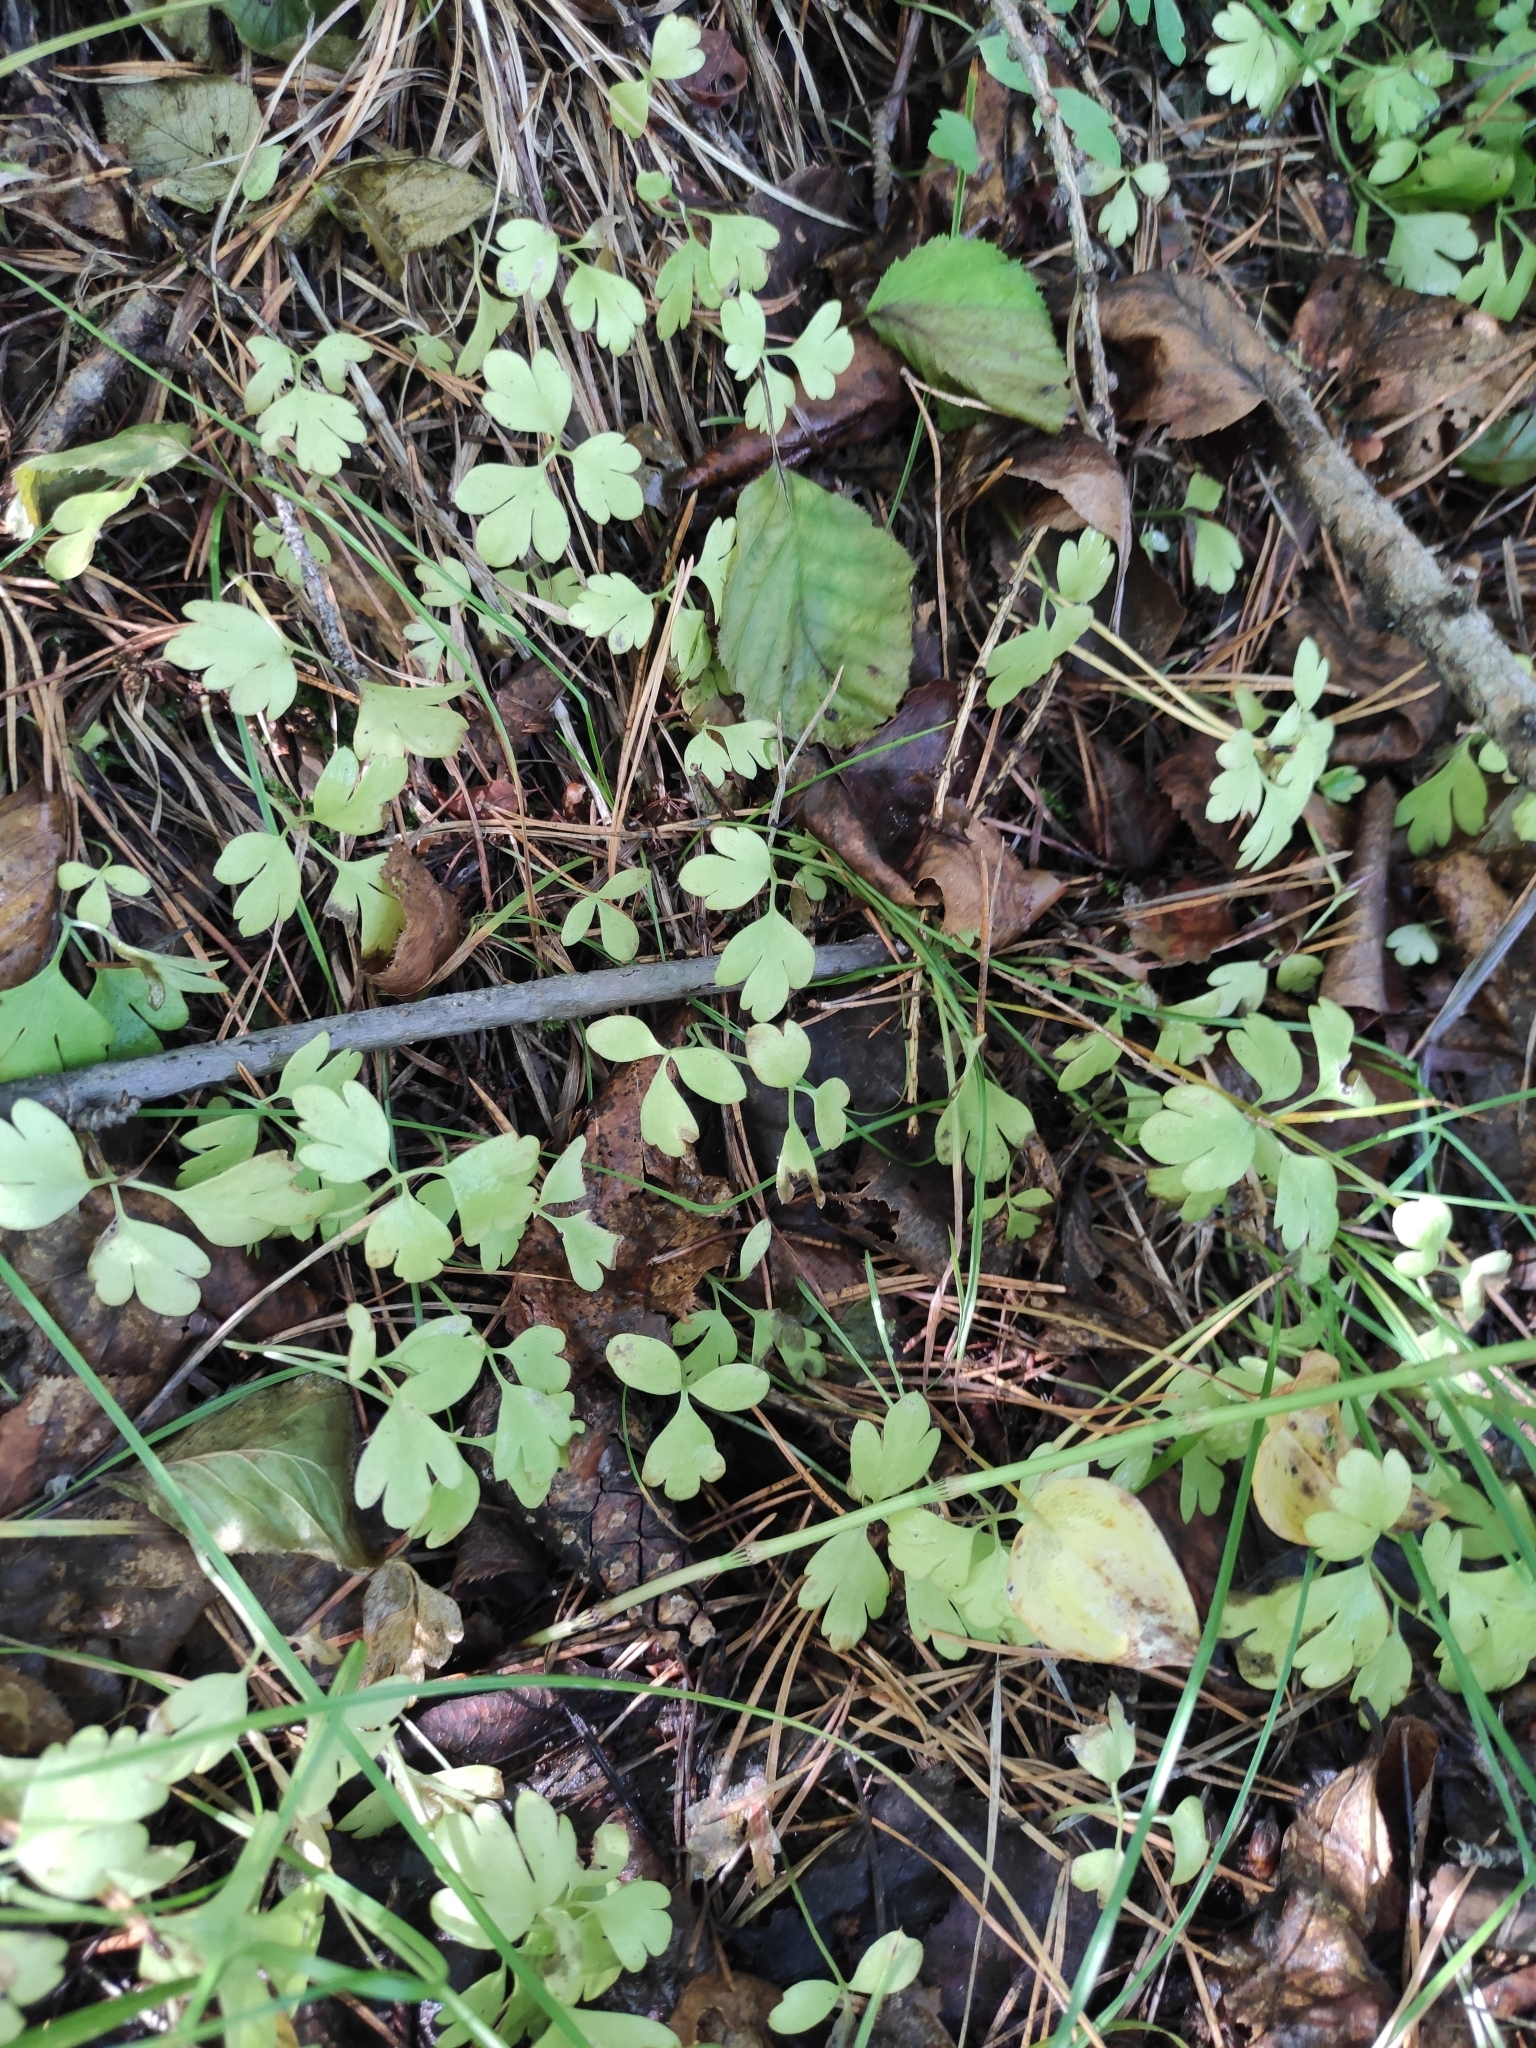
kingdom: Plantae
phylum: Tracheophyta
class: Magnoliopsida
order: Dipsacales
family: Viburnaceae
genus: Adoxa
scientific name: Adoxa moschatellina
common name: Moschatel
